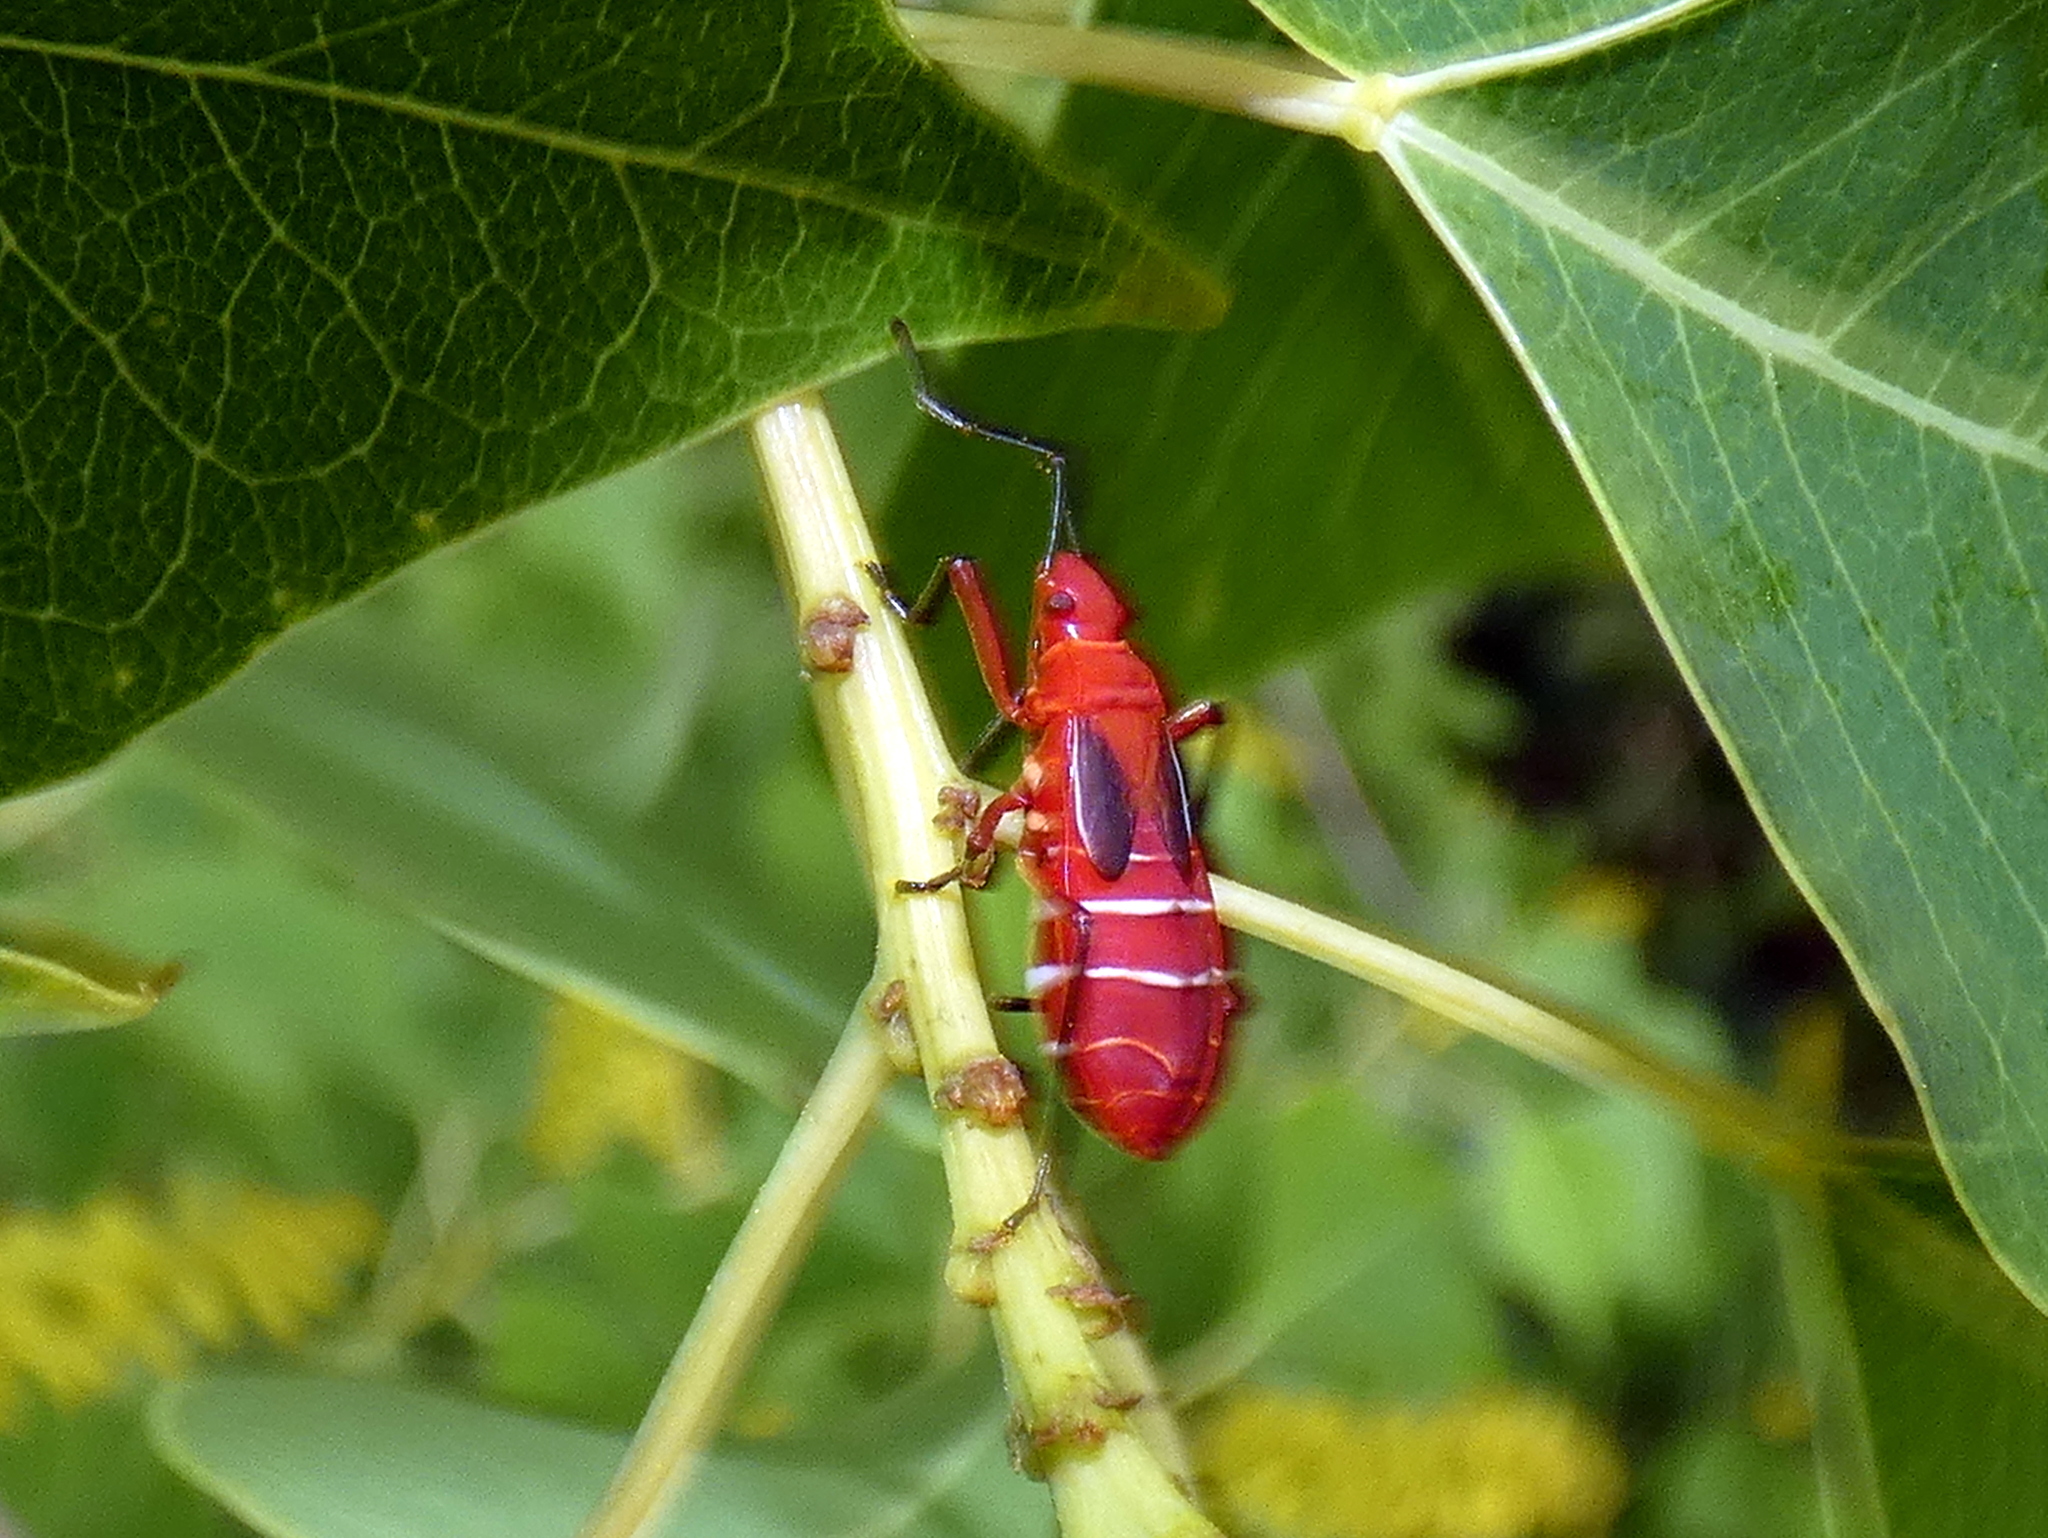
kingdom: Animalia
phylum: Arthropoda
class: Insecta
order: Hemiptera
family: Pyrrhocoridae
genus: Dysdercus
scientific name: Dysdercus suturellus
